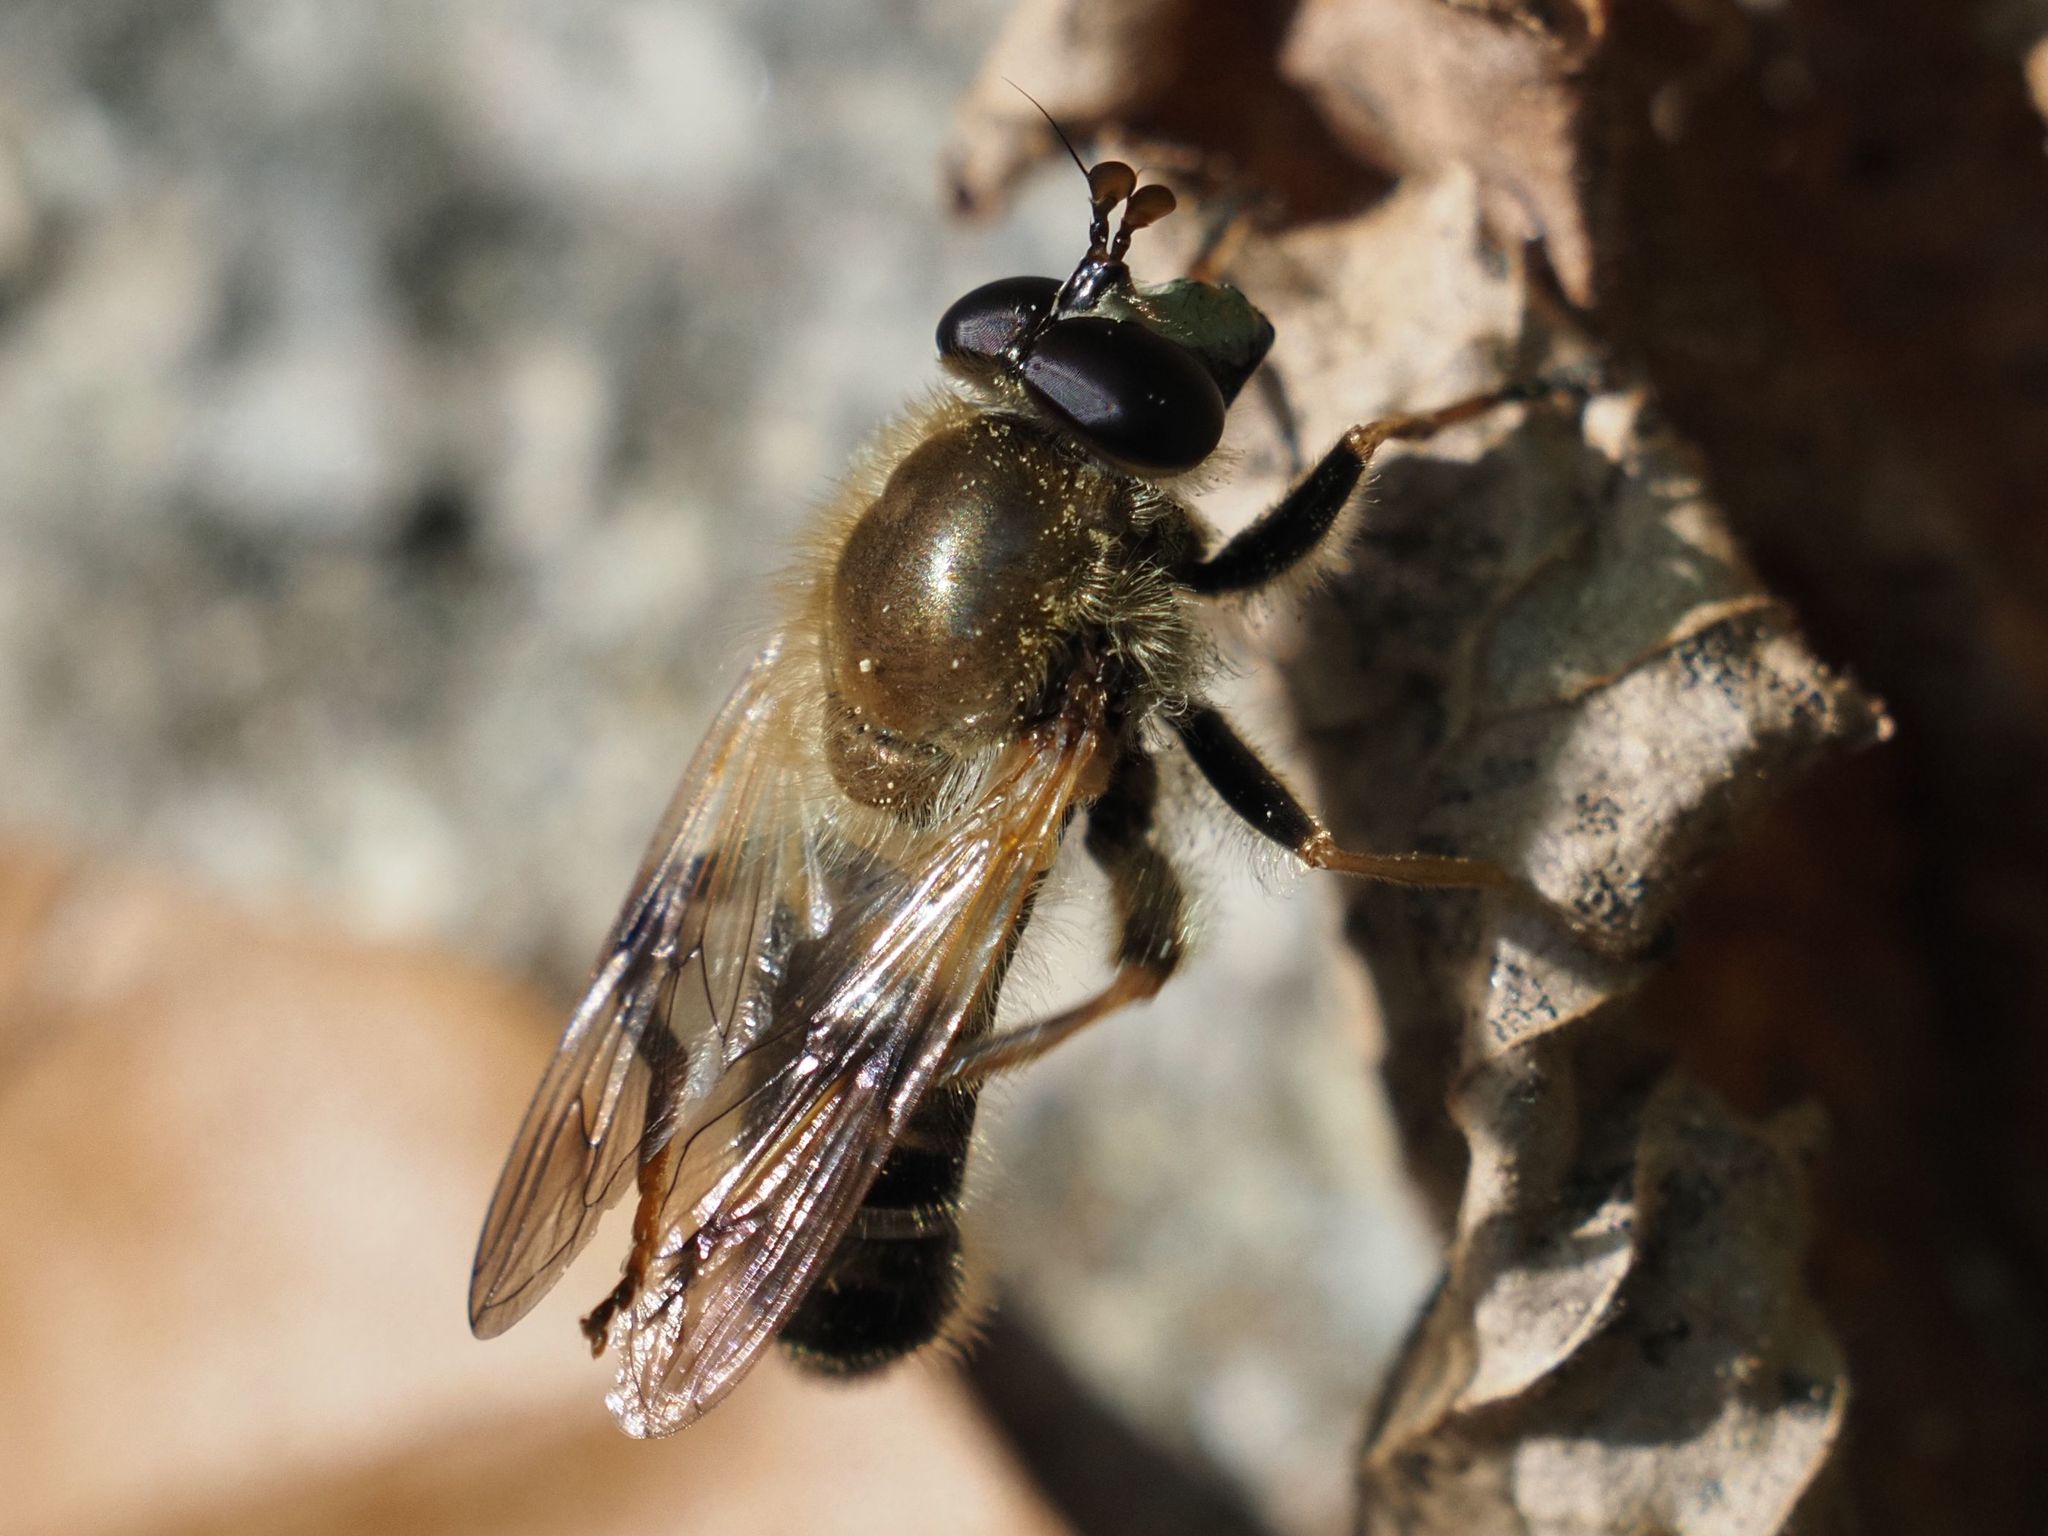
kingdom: Animalia
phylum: Arthropoda
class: Insecta
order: Diptera
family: Syrphidae
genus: Criorhina
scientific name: Criorhina asilica
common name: Pale-banded bear hoverfly
